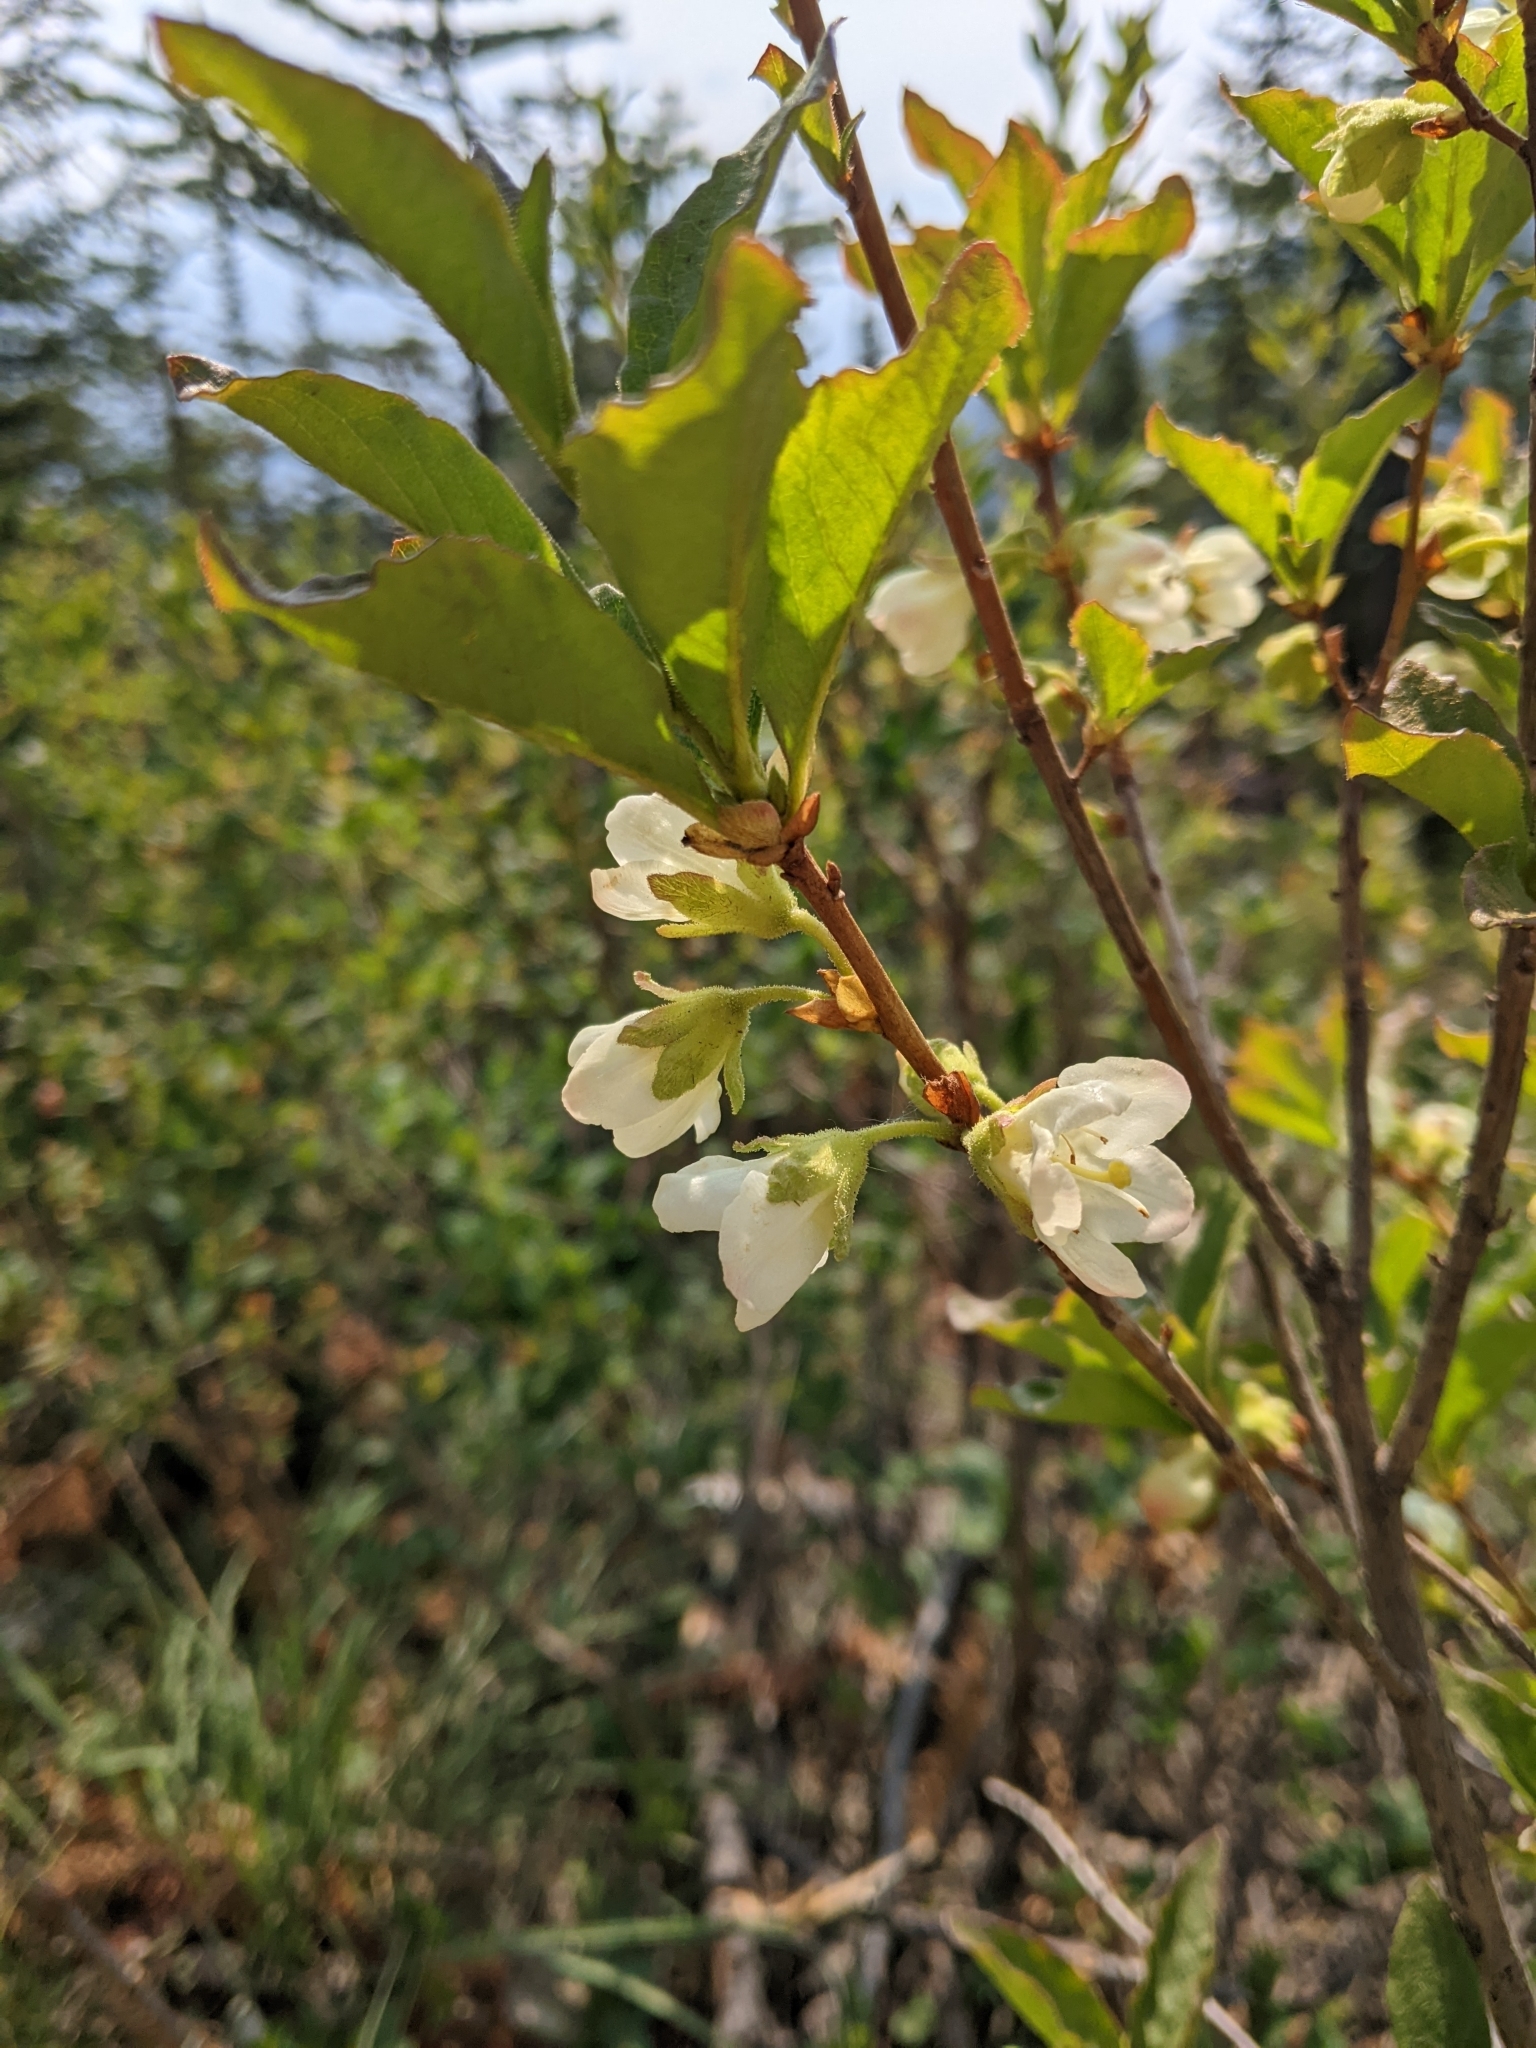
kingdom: Plantae
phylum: Tracheophyta
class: Magnoliopsida
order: Ericales
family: Ericaceae
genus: Rhododendron
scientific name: Rhododendron albiflorum
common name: White rhododendron
